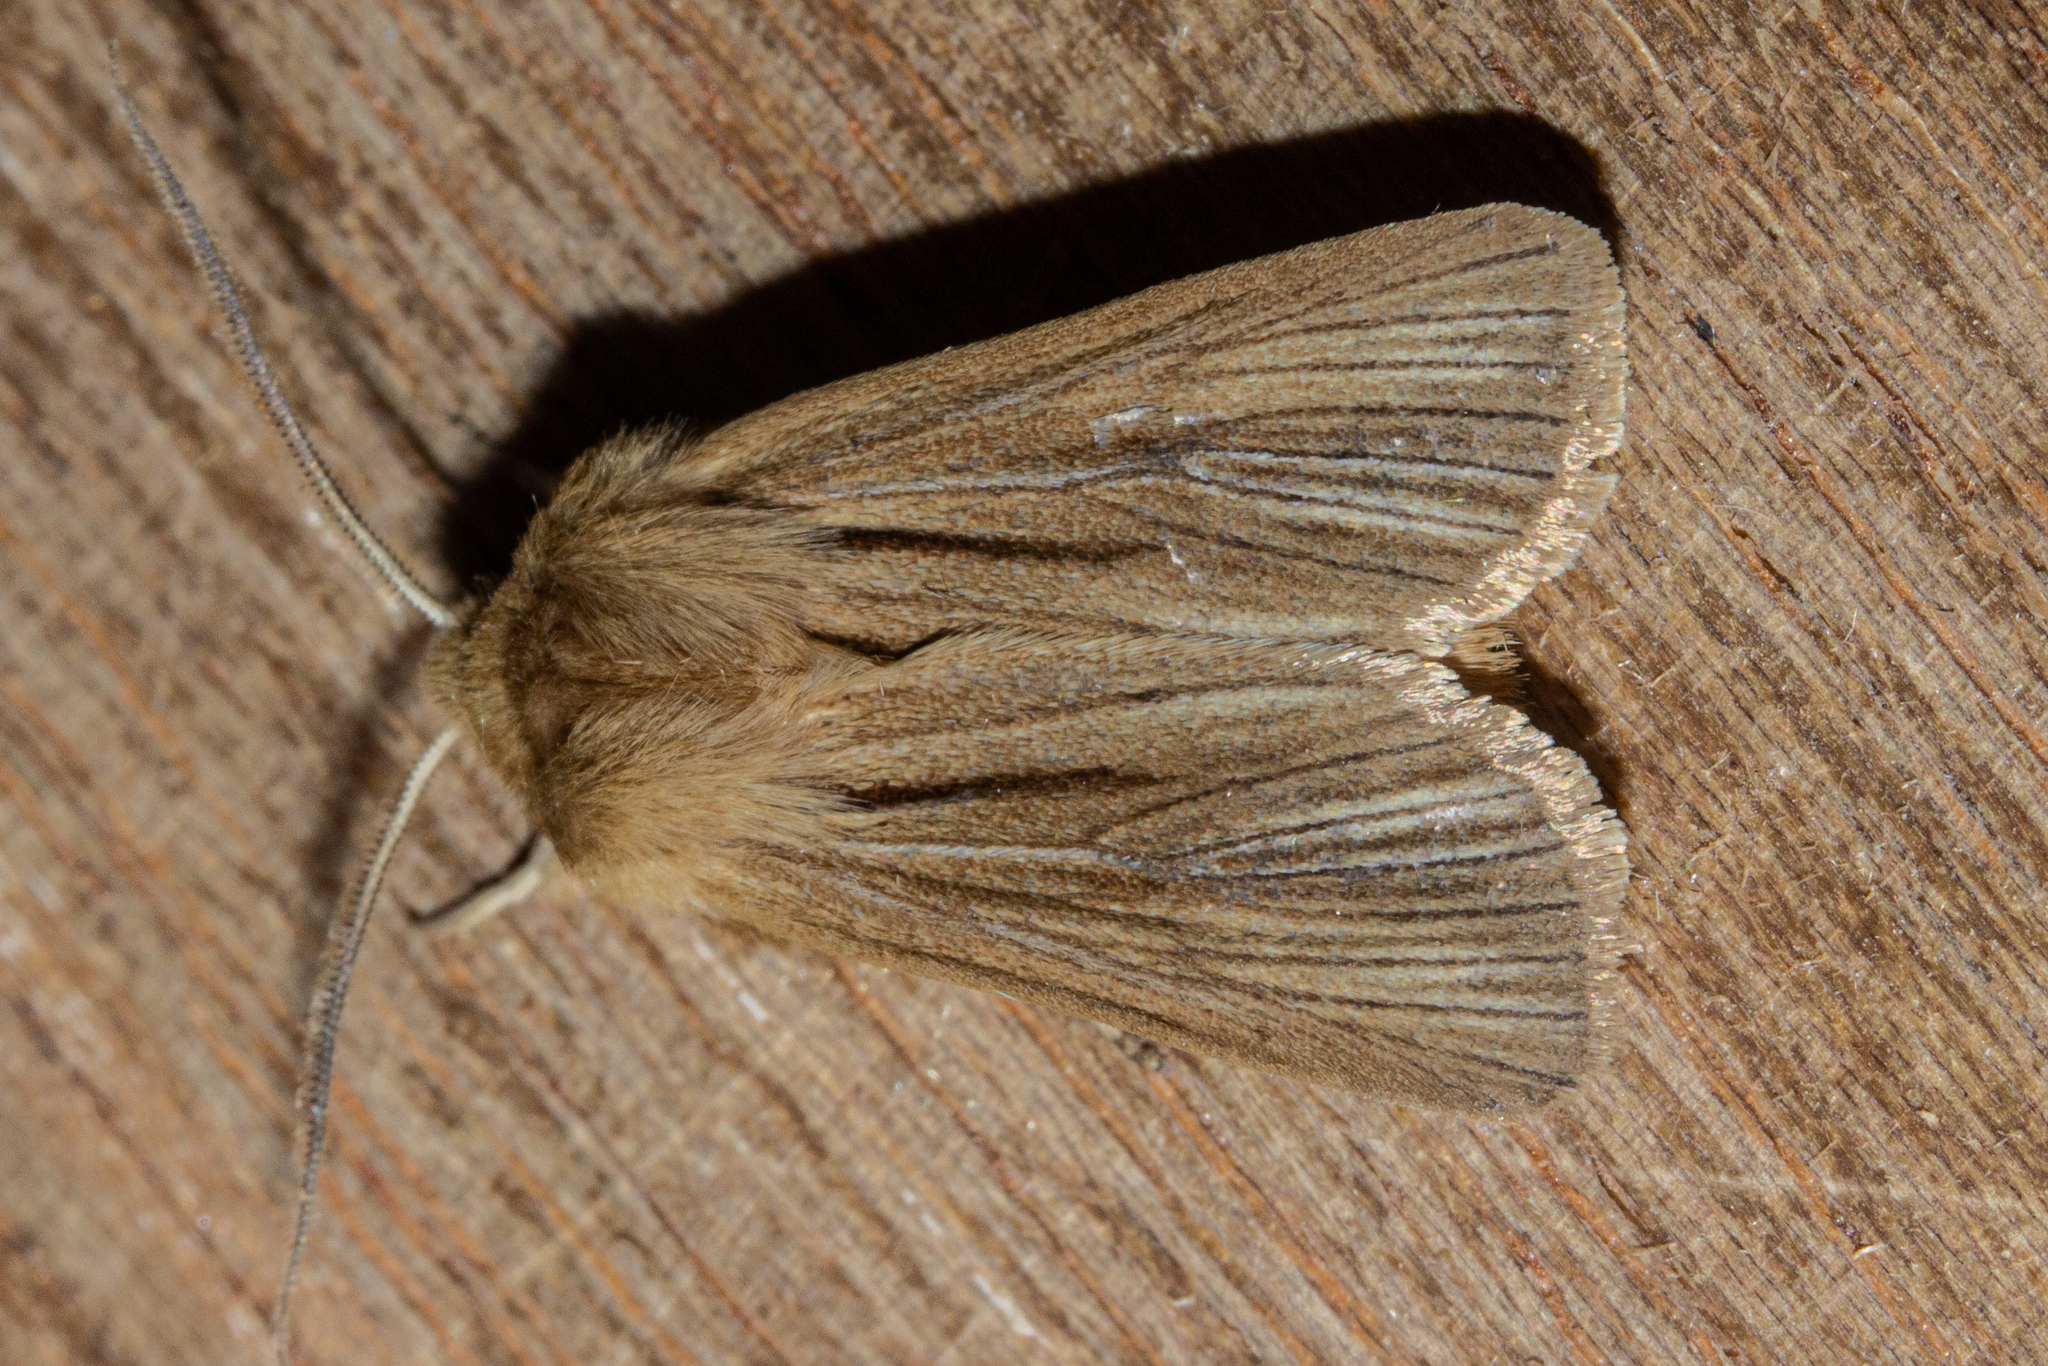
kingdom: Animalia
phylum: Arthropoda
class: Insecta
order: Lepidoptera
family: Noctuidae
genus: Ichneutica
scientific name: Ichneutica
